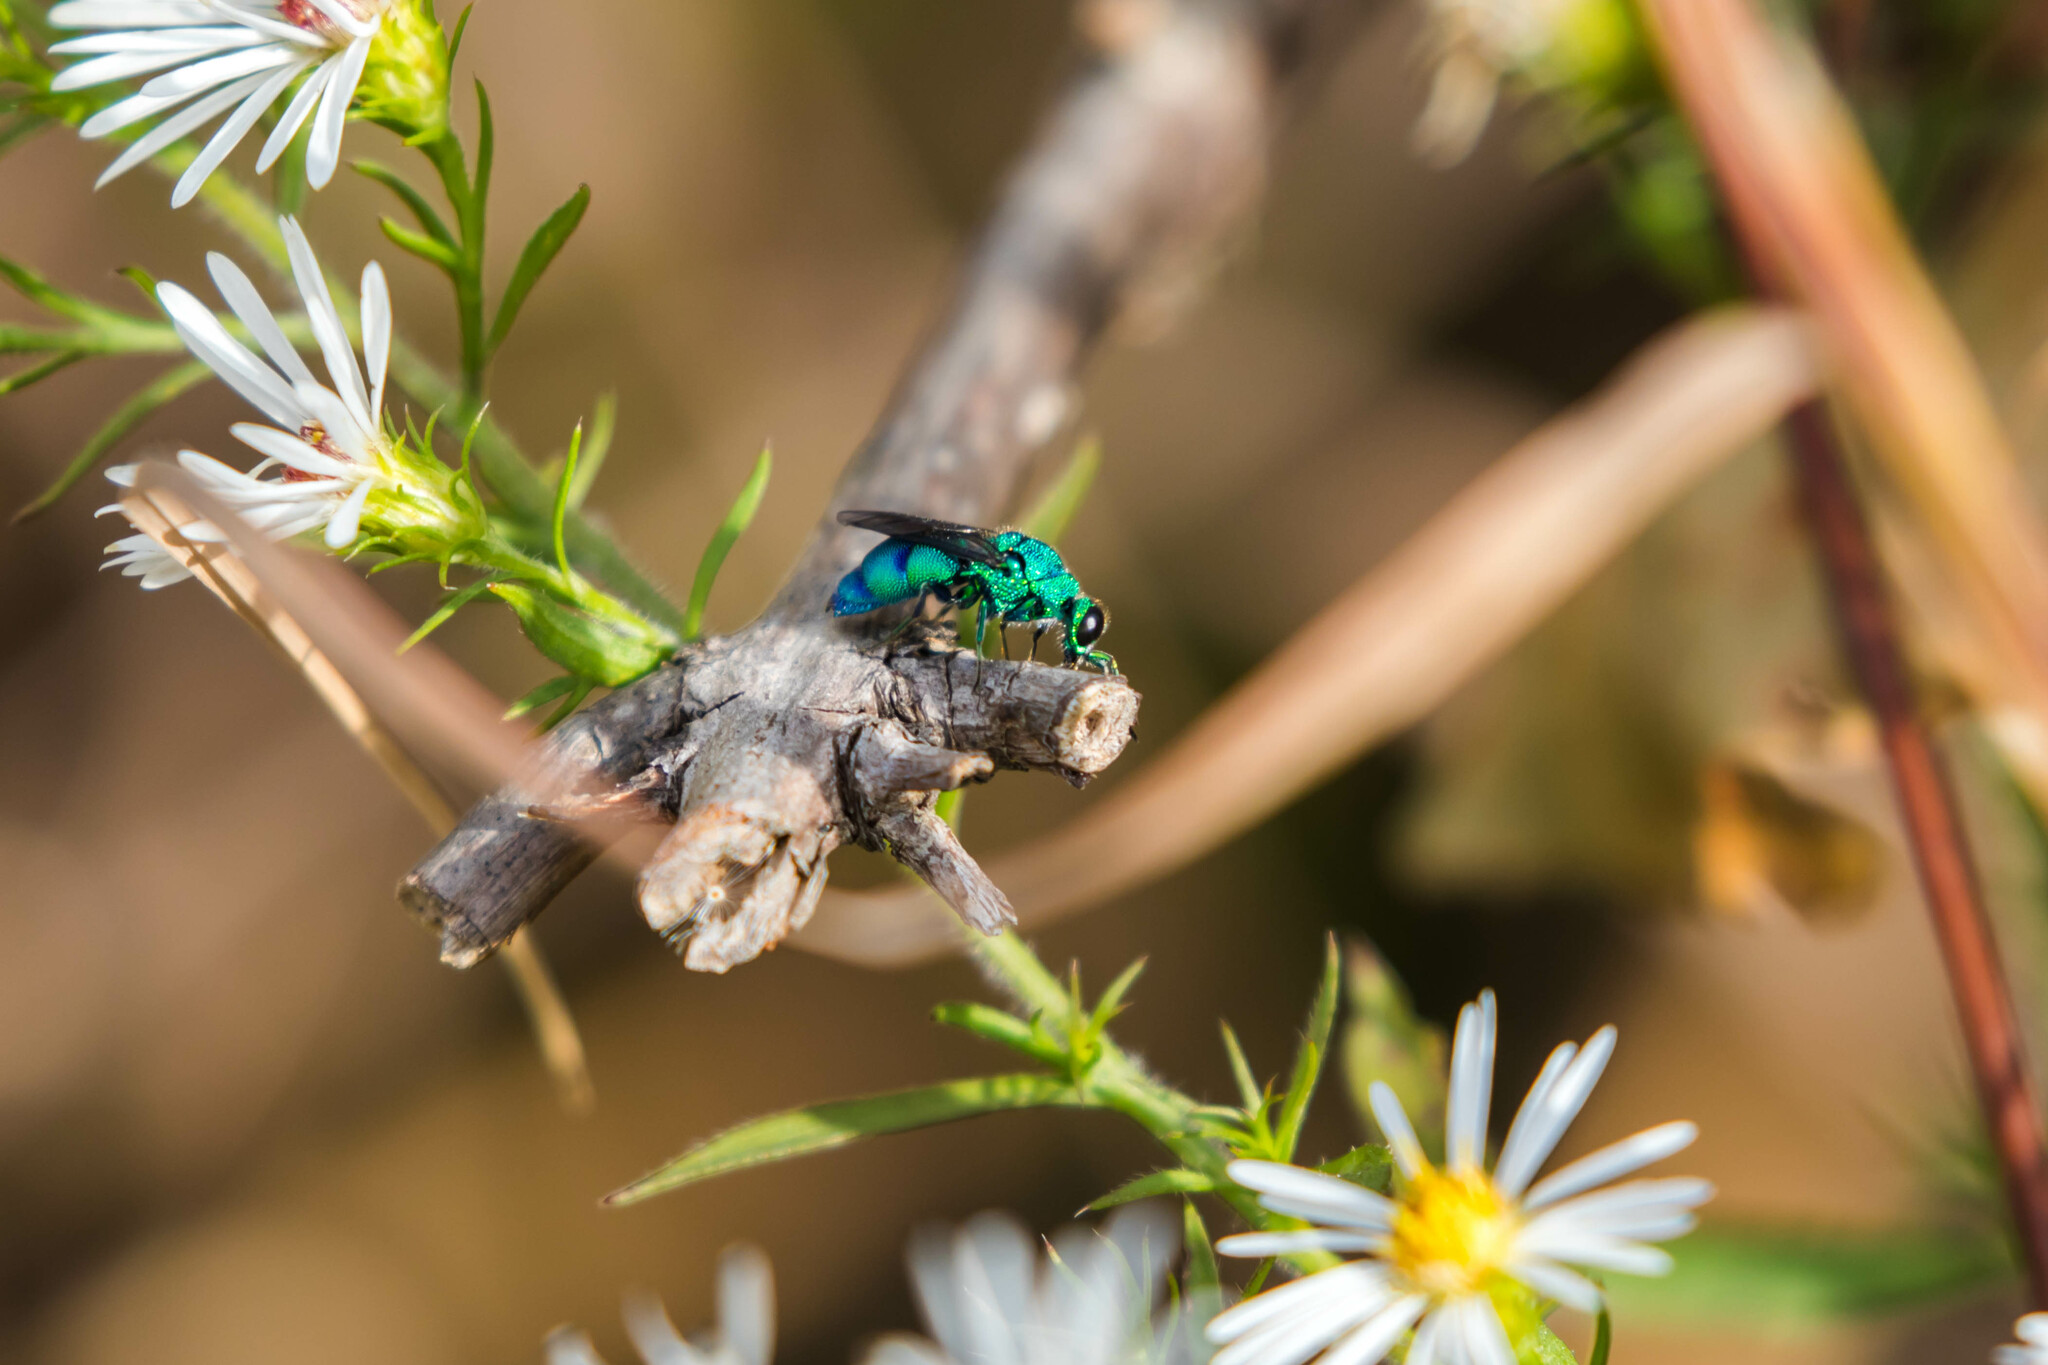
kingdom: Animalia
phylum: Arthropoda
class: Insecta
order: Hymenoptera
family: Chrysididae
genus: Chrysis
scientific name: Chrysis conica
